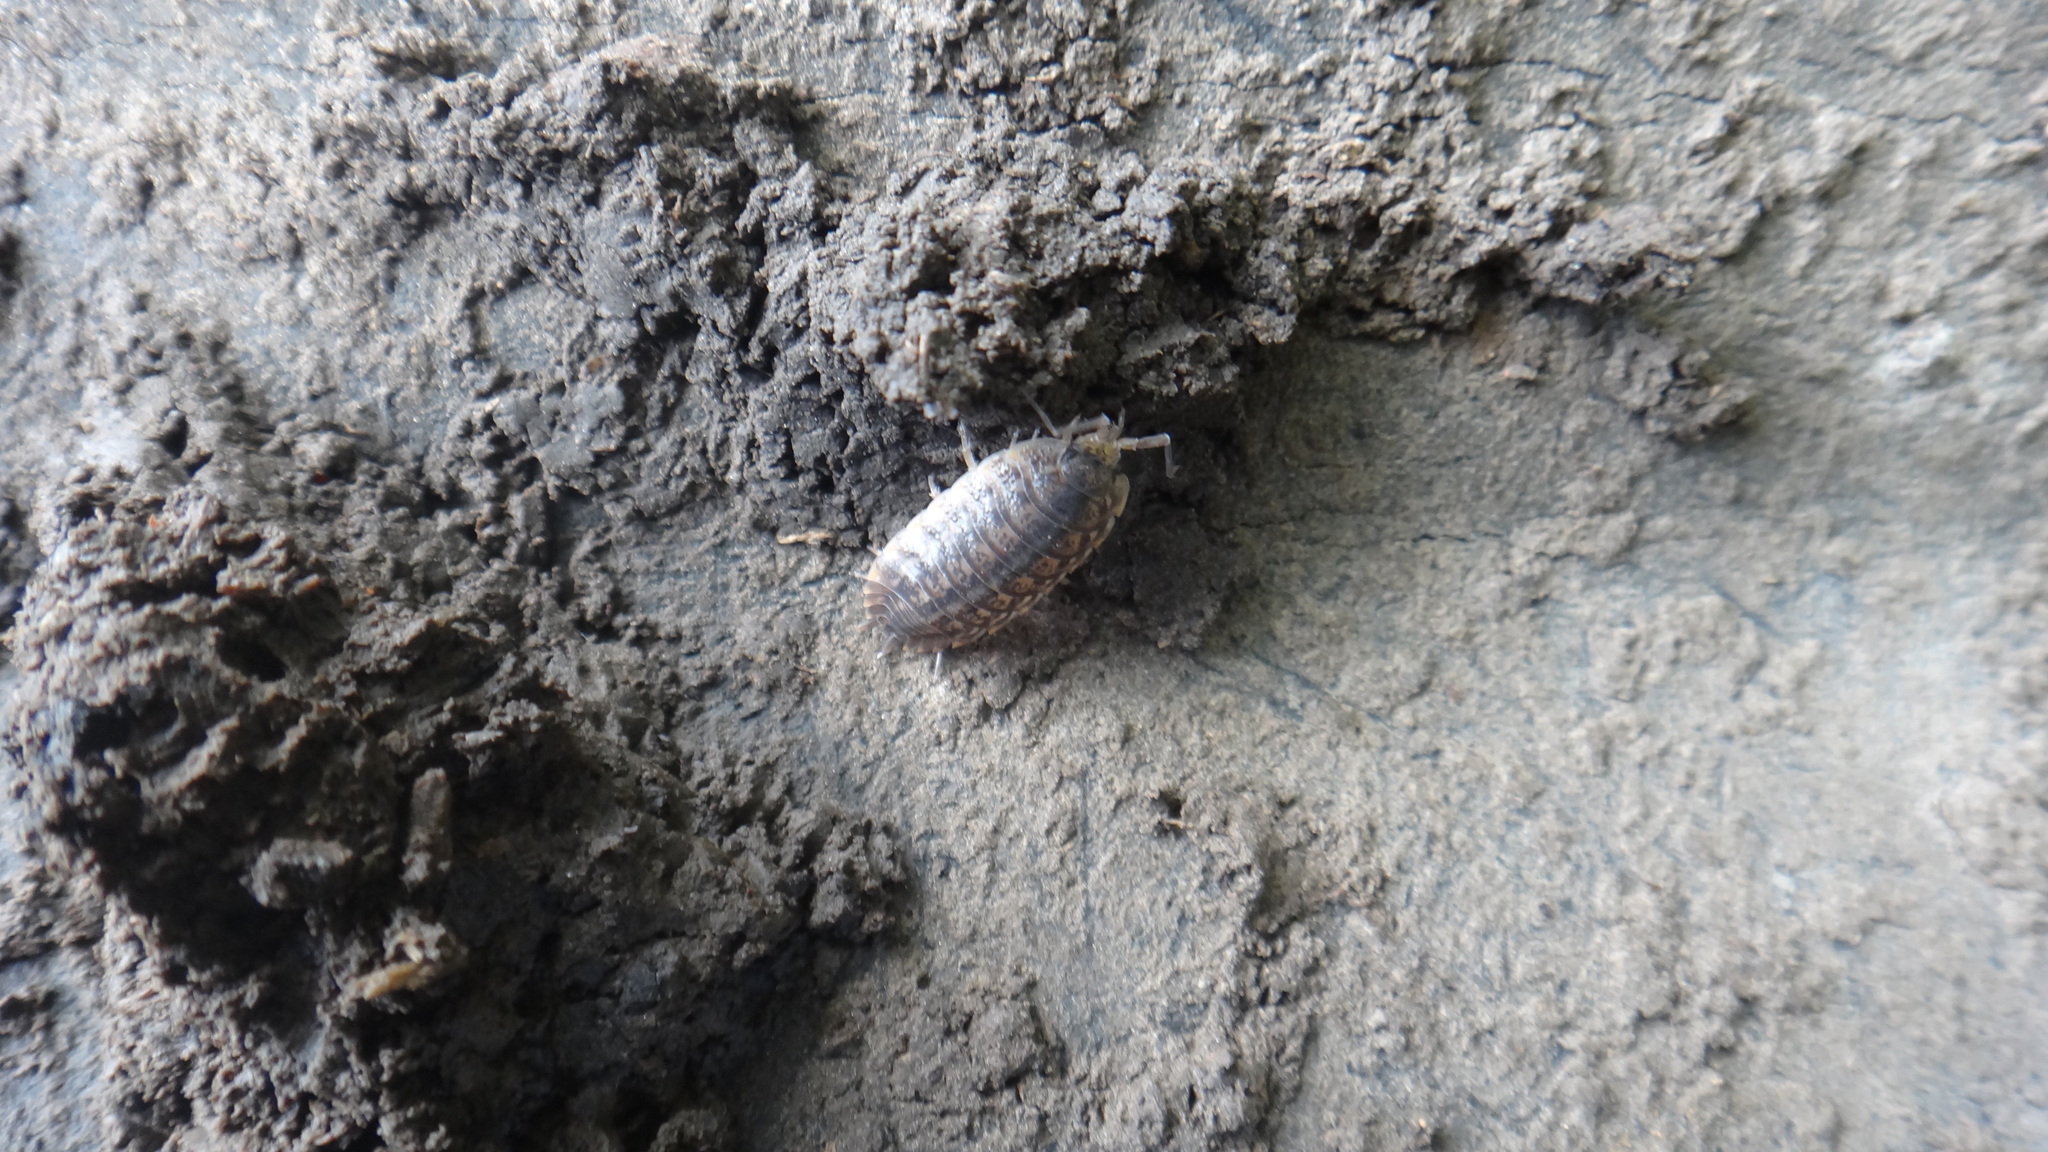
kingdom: Animalia
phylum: Arthropoda
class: Malacostraca
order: Isopoda
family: Trachelipodidae
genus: Trachelipus
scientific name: Trachelipus rathkii
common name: Isopod
